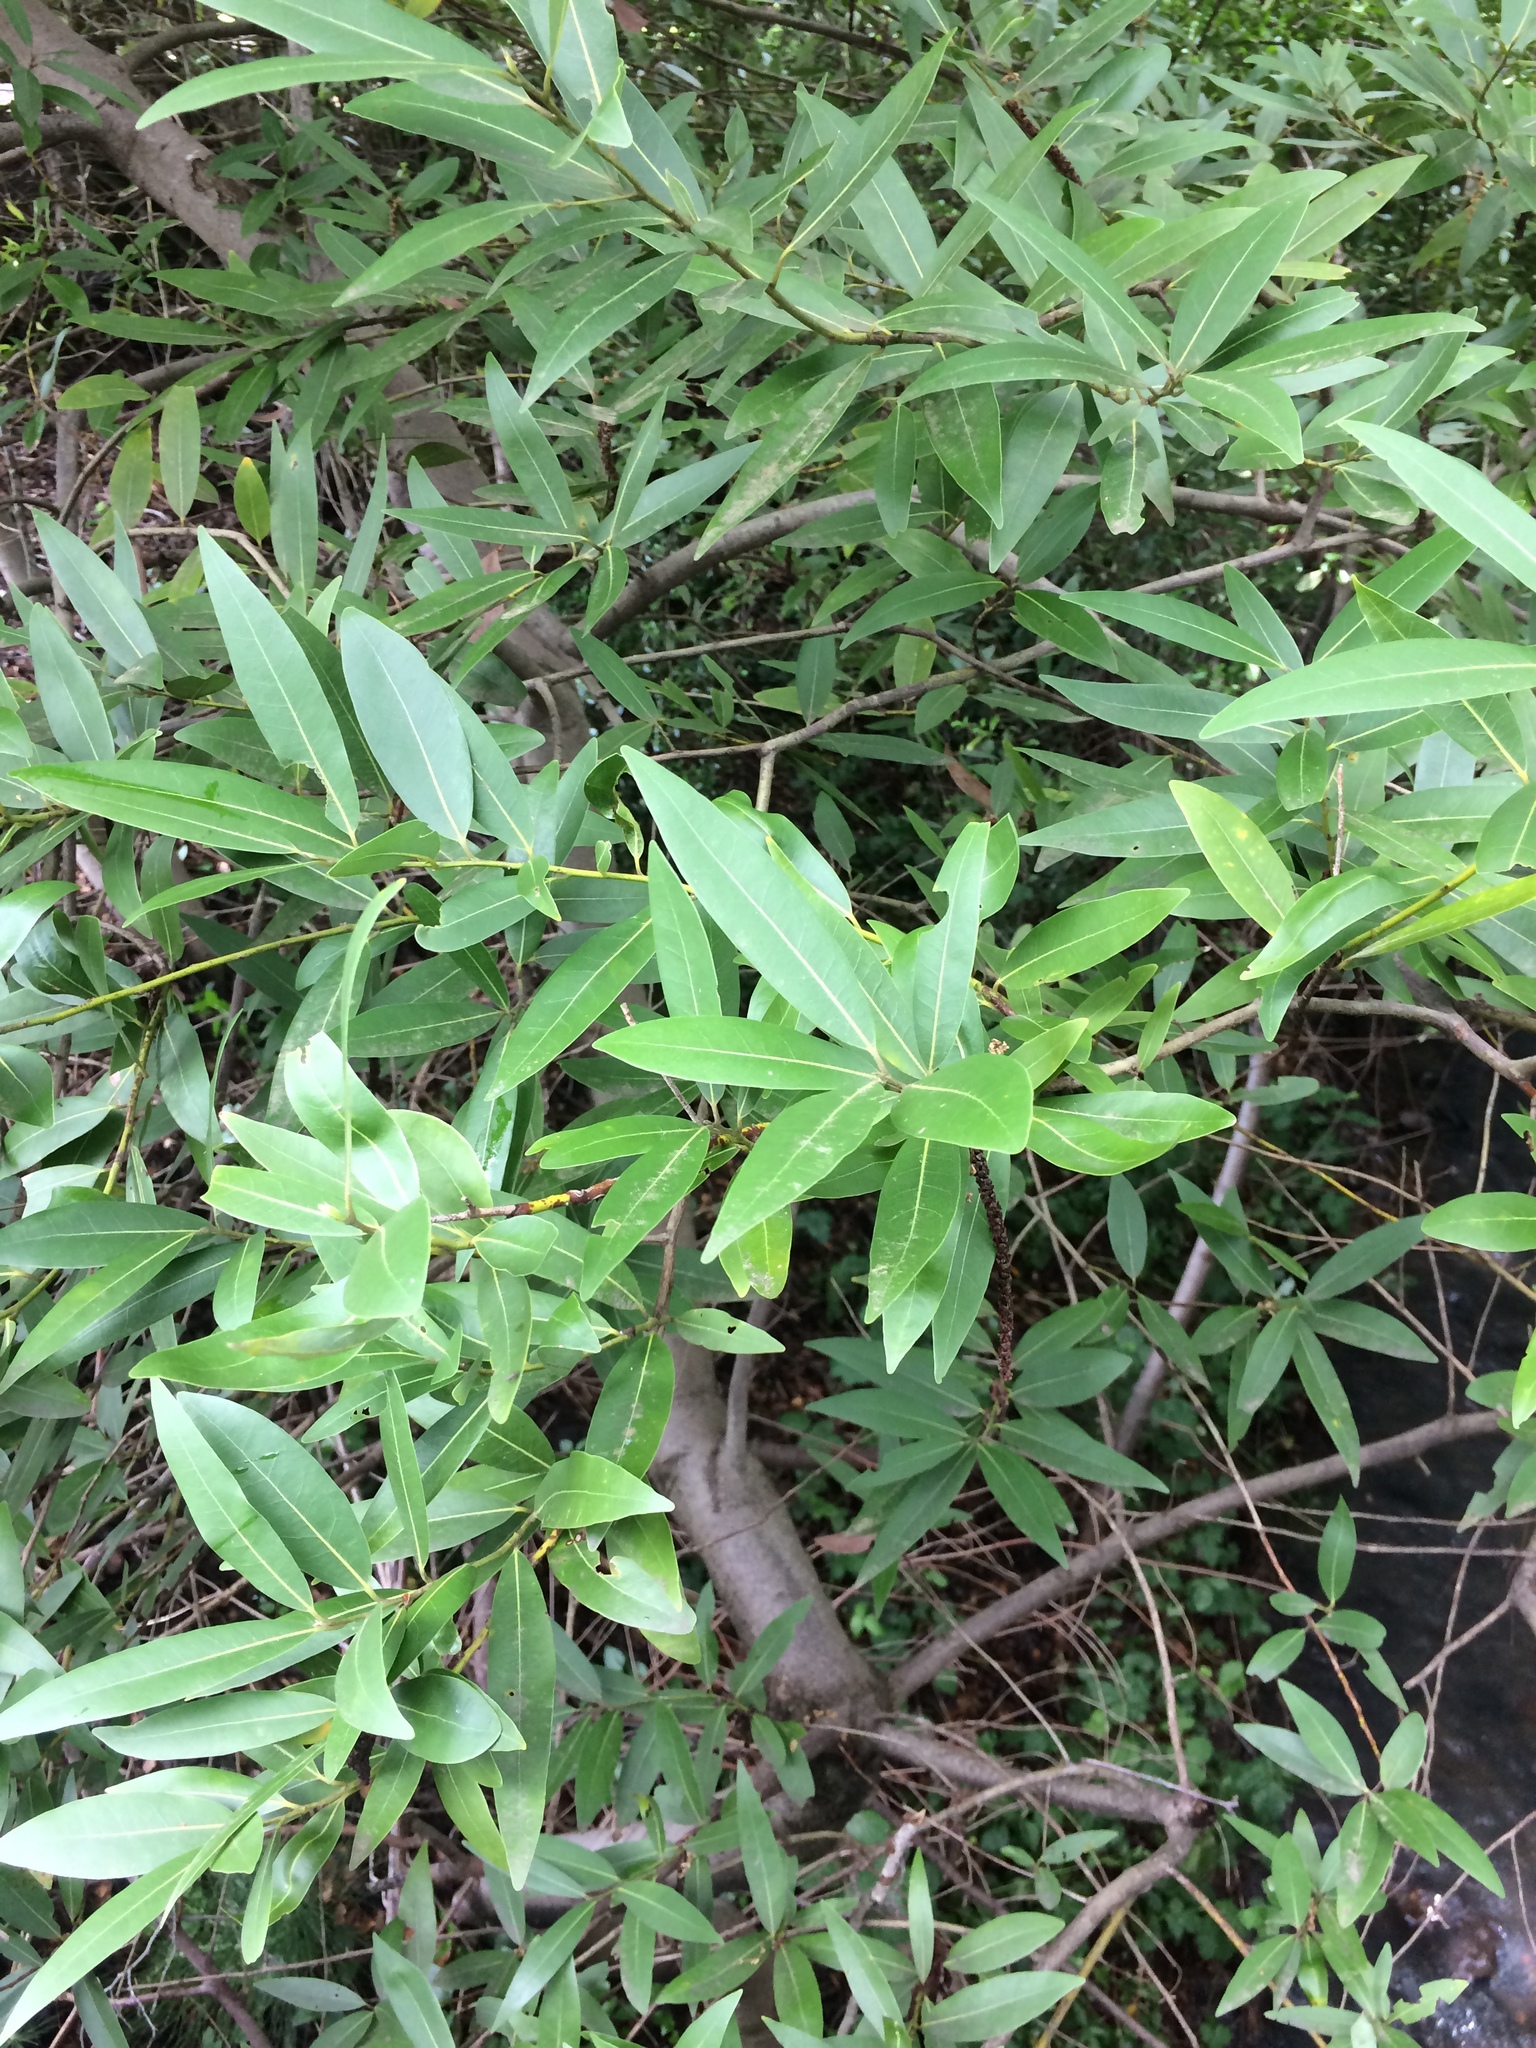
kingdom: Plantae
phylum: Tracheophyta
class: Magnoliopsida
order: Laurales
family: Lauraceae
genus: Umbellularia
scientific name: Umbellularia californica
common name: California bay
